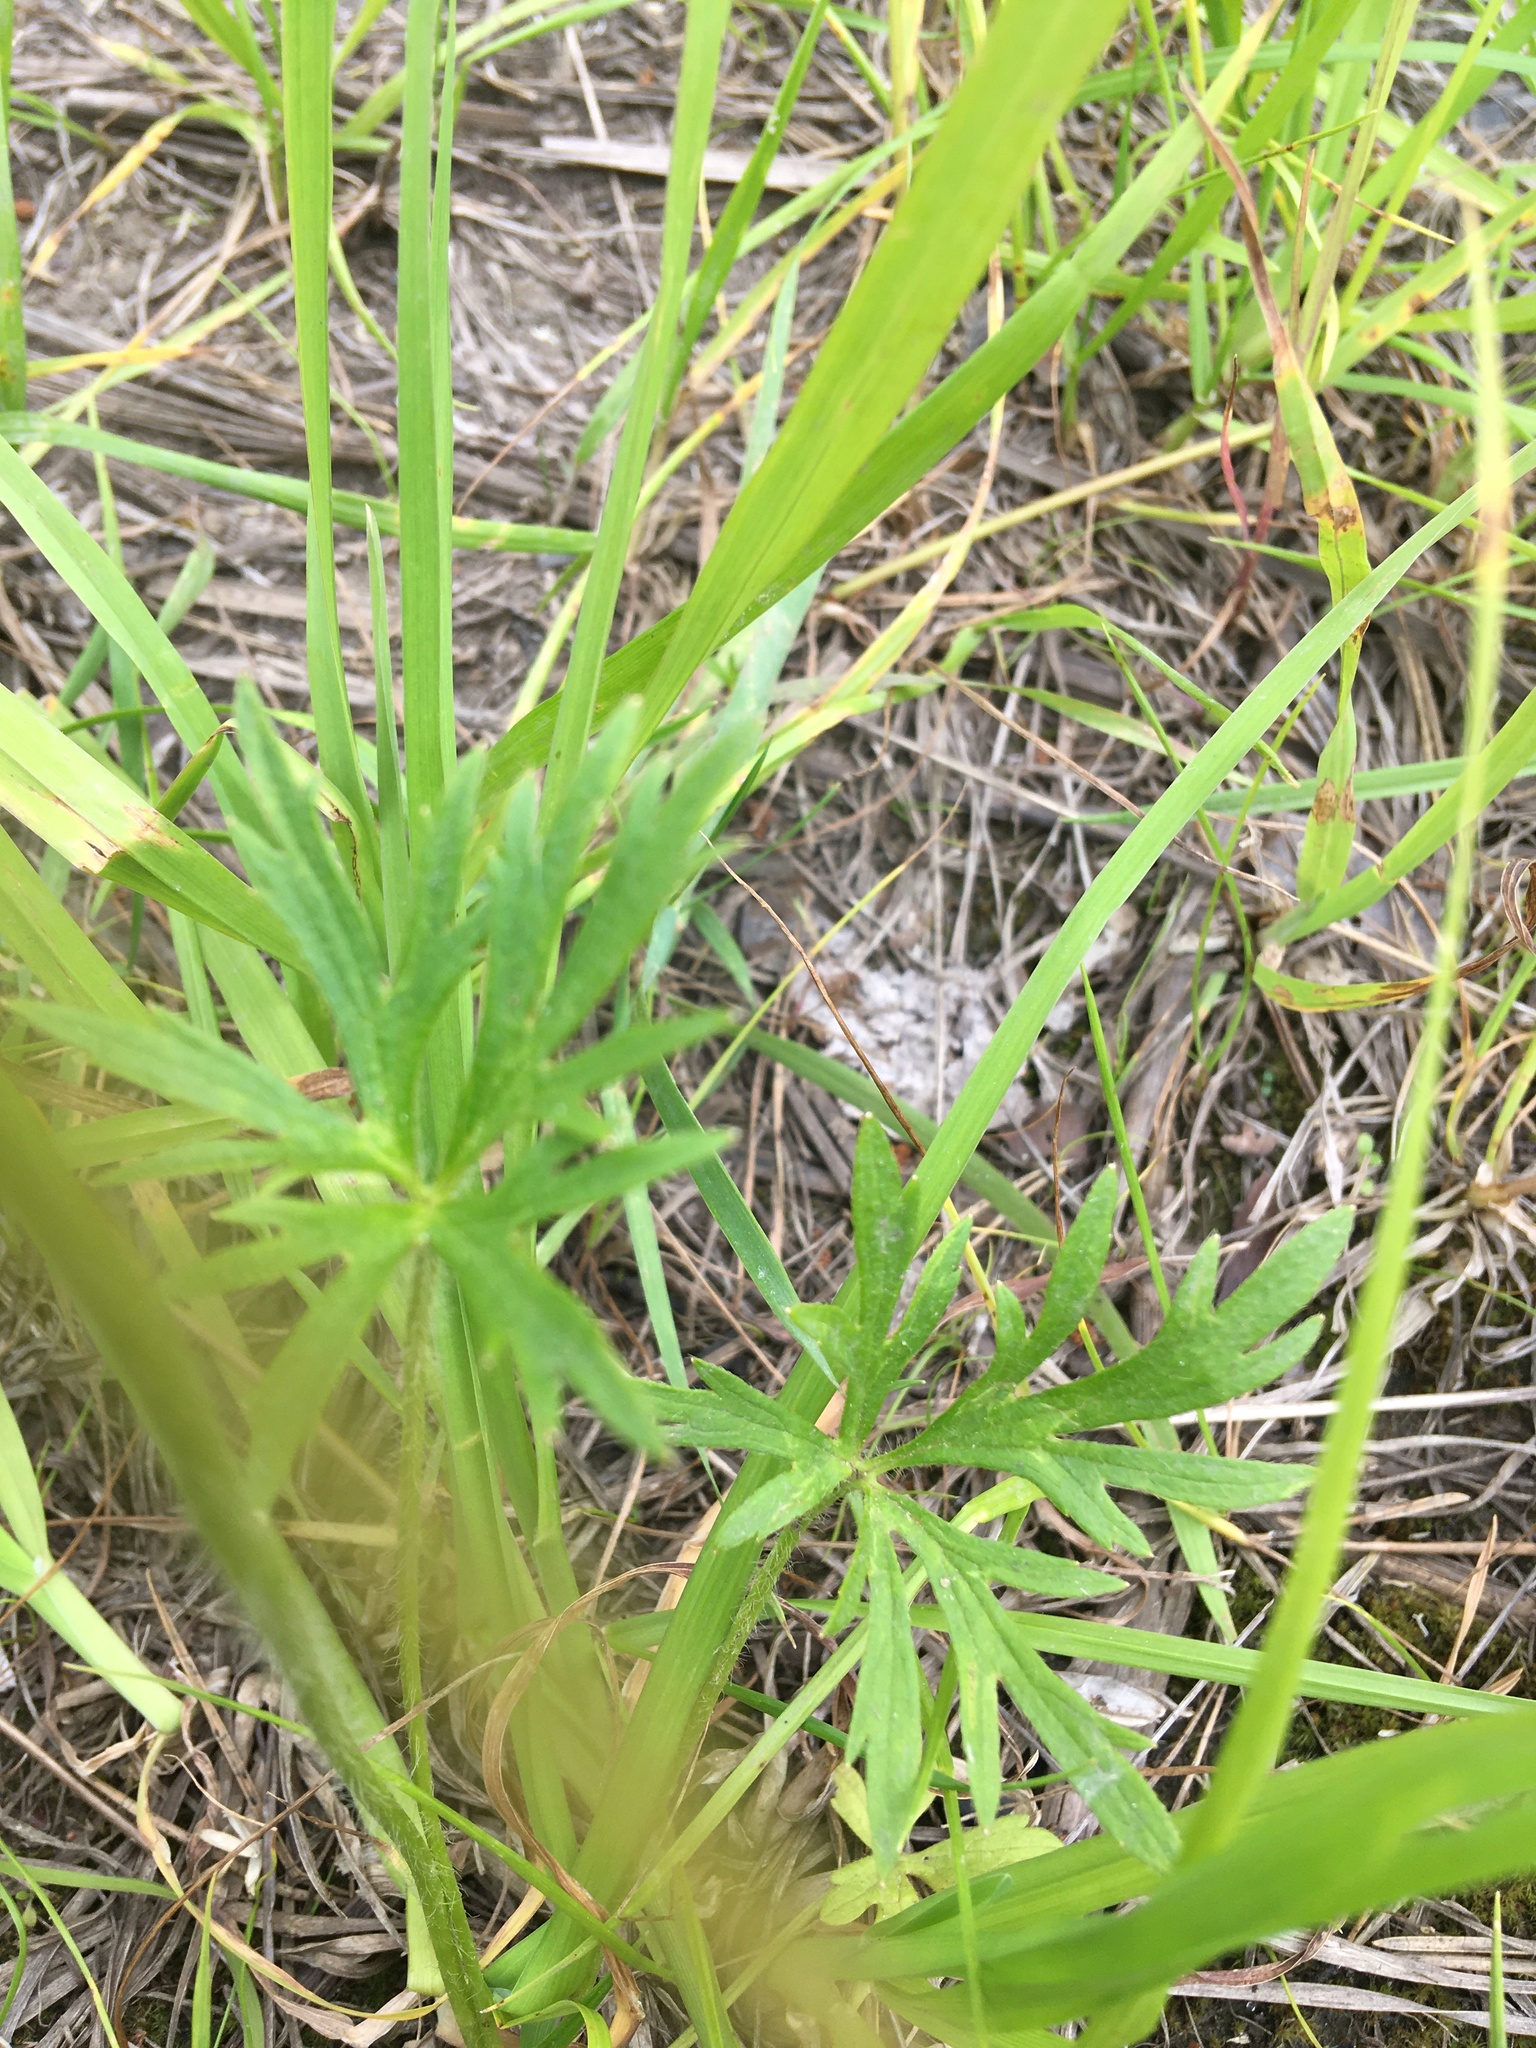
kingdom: Plantae
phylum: Tracheophyta
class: Magnoliopsida
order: Ranunculales
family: Ranunculaceae
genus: Ranunculus
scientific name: Ranunculus polyanthemos
